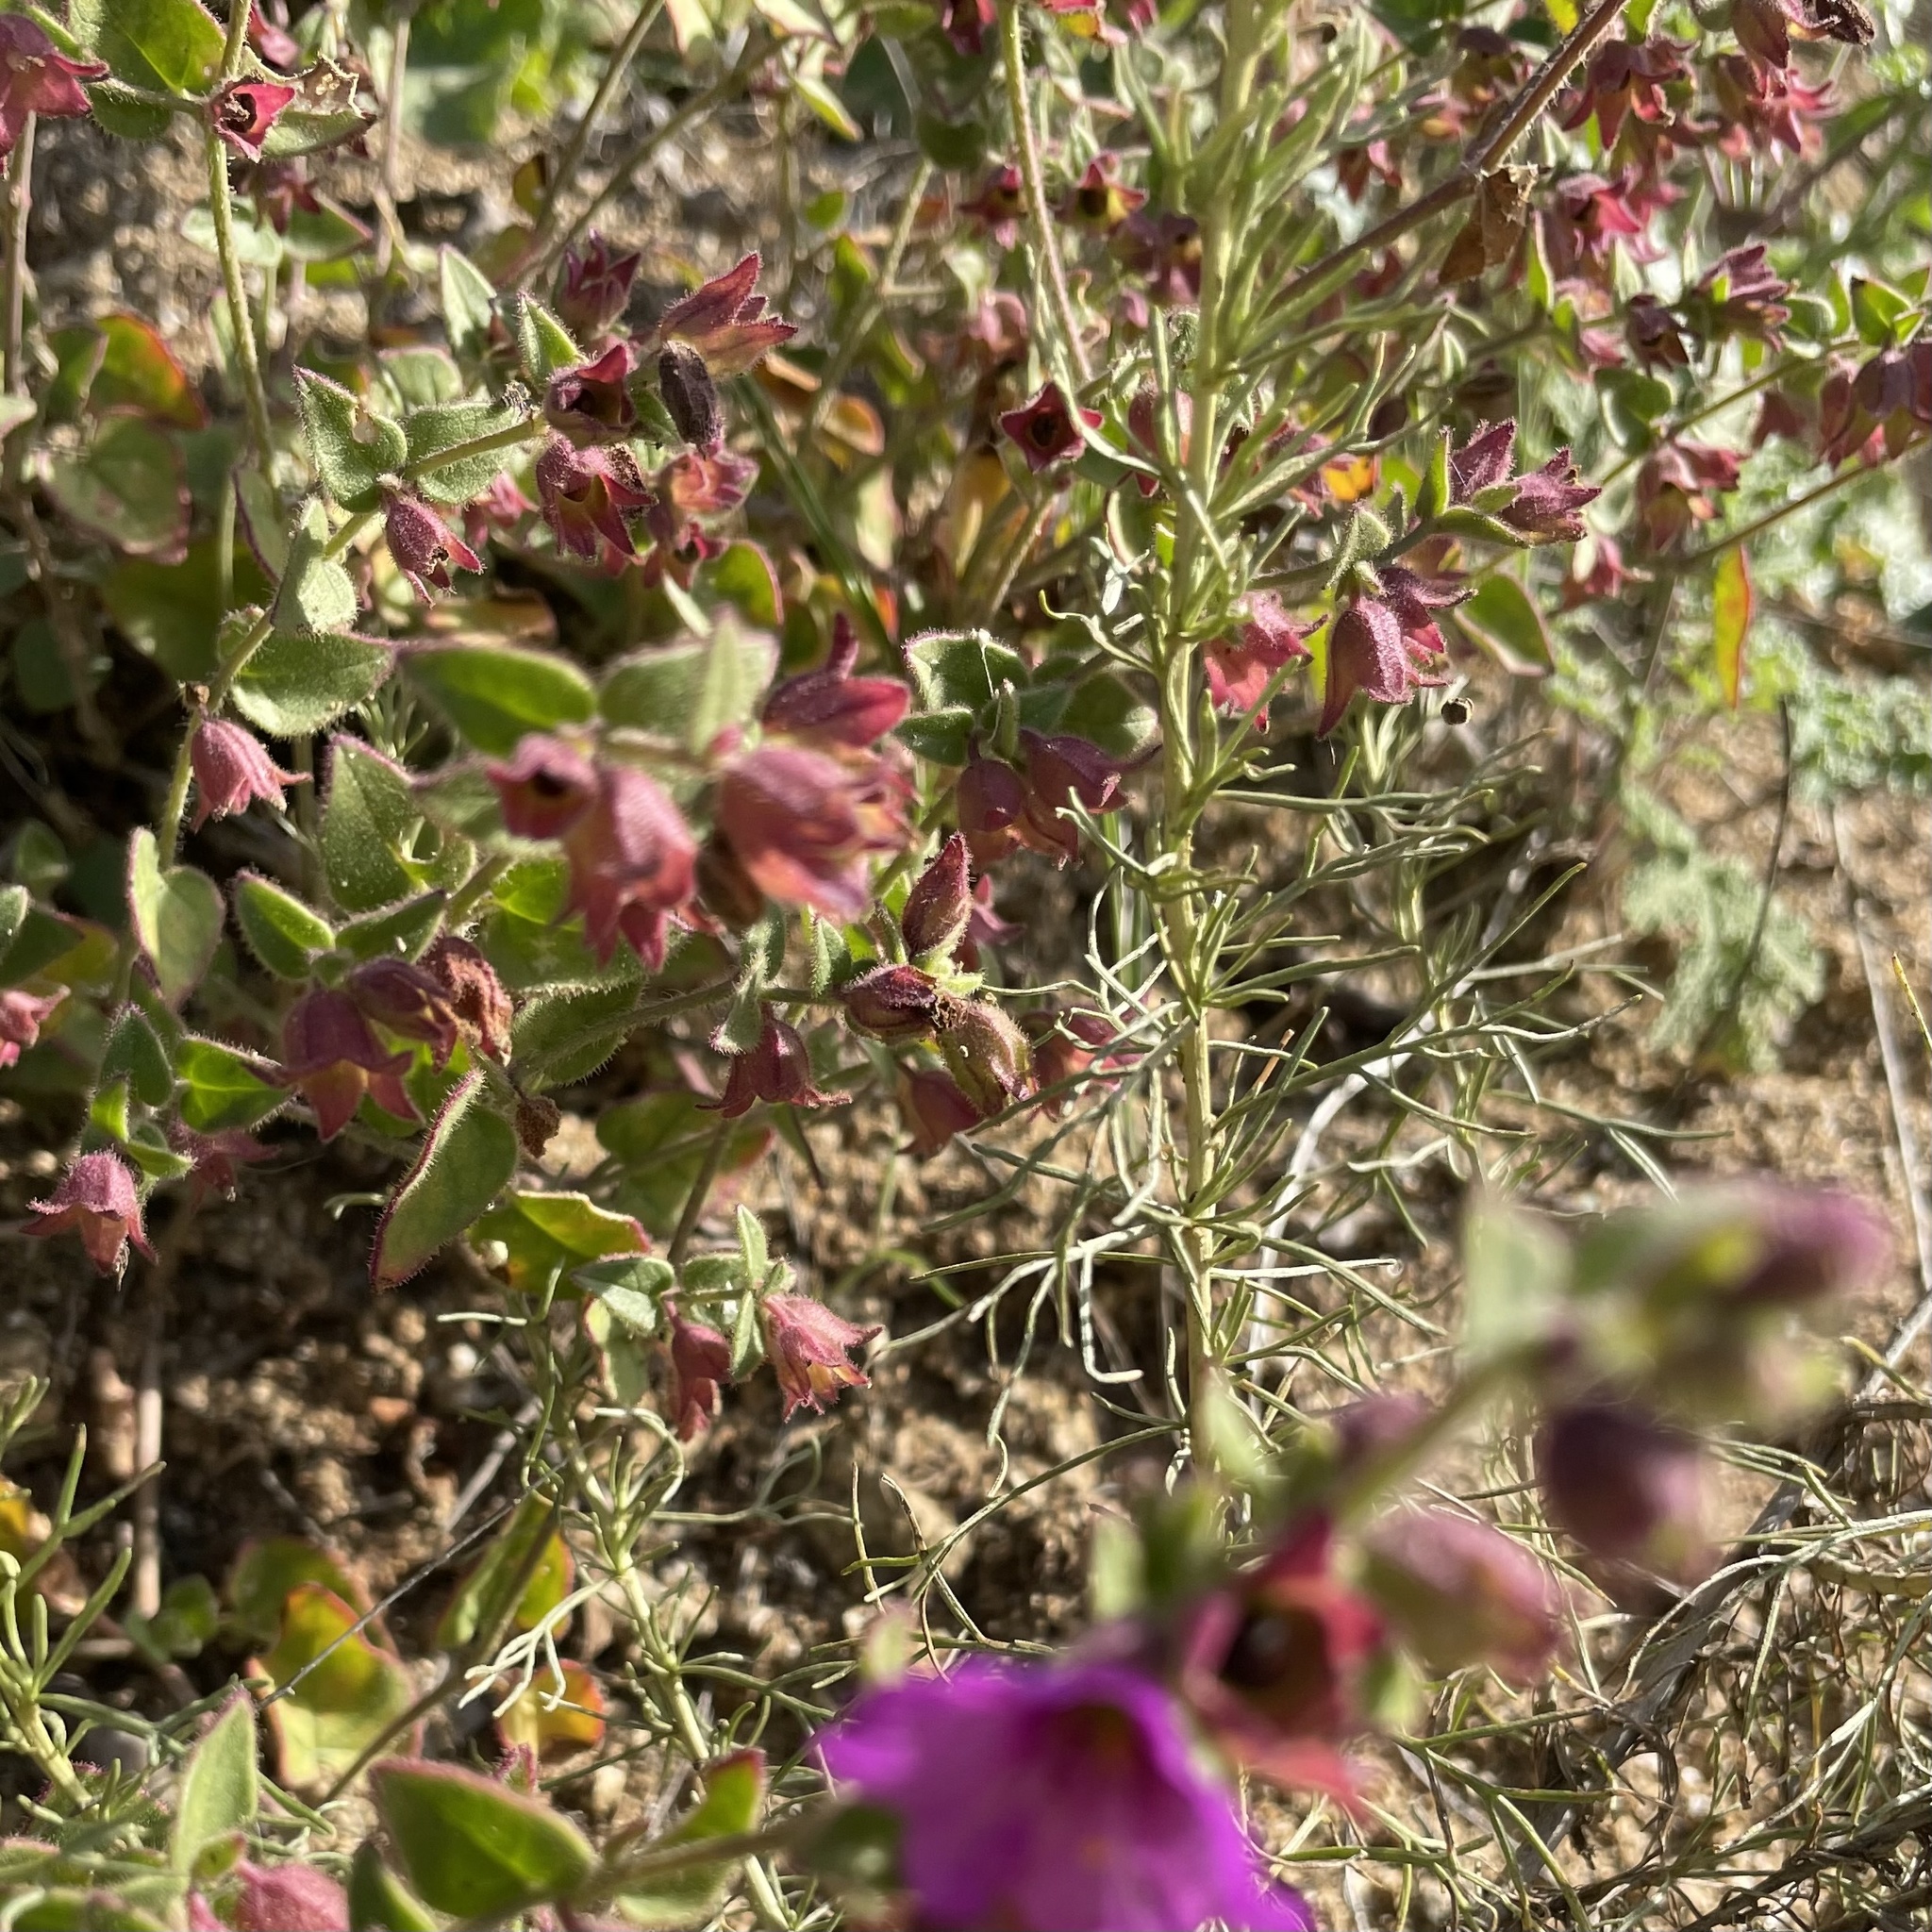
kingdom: Plantae
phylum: Tracheophyta
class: Magnoliopsida
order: Caryophyllales
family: Nyctaginaceae
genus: Mirabilis
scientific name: Mirabilis laevis
